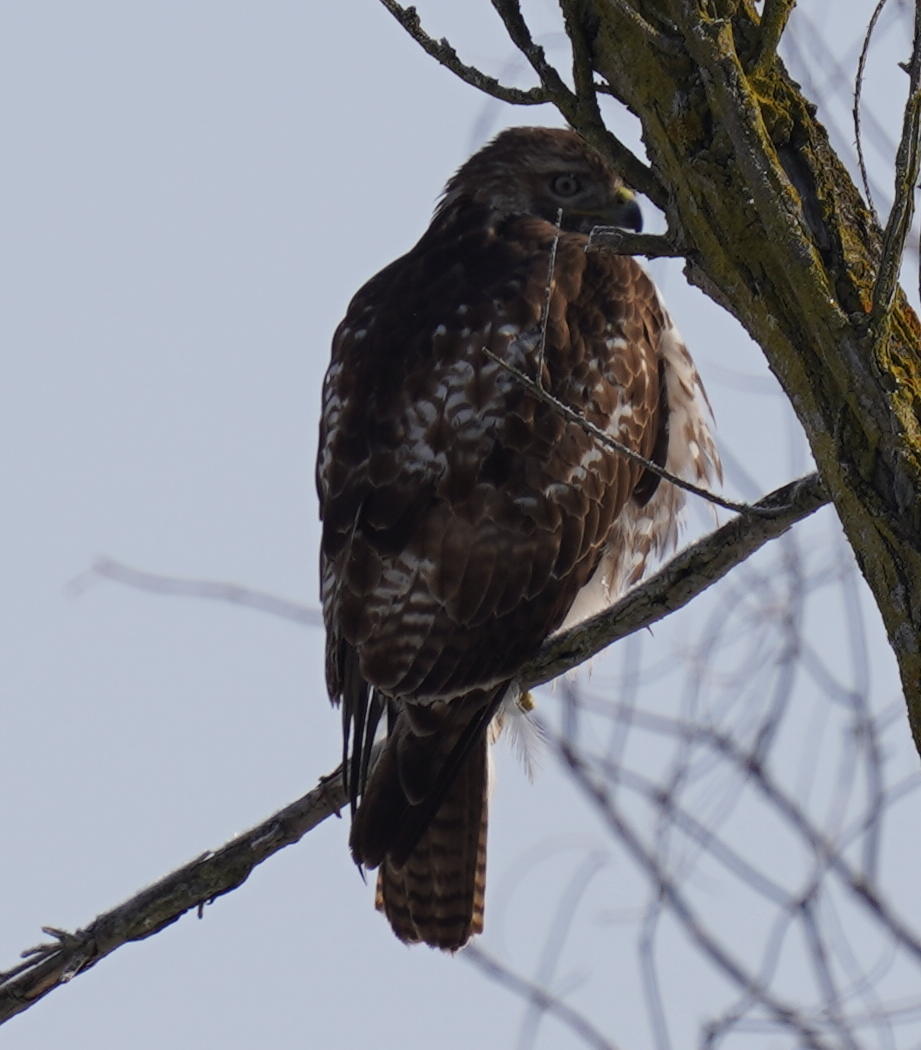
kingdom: Animalia
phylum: Chordata
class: Aves
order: Accipitriformes
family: Accipitridae
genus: Buteo
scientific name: Buteo jamaicensis
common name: Red-tailed hawk
